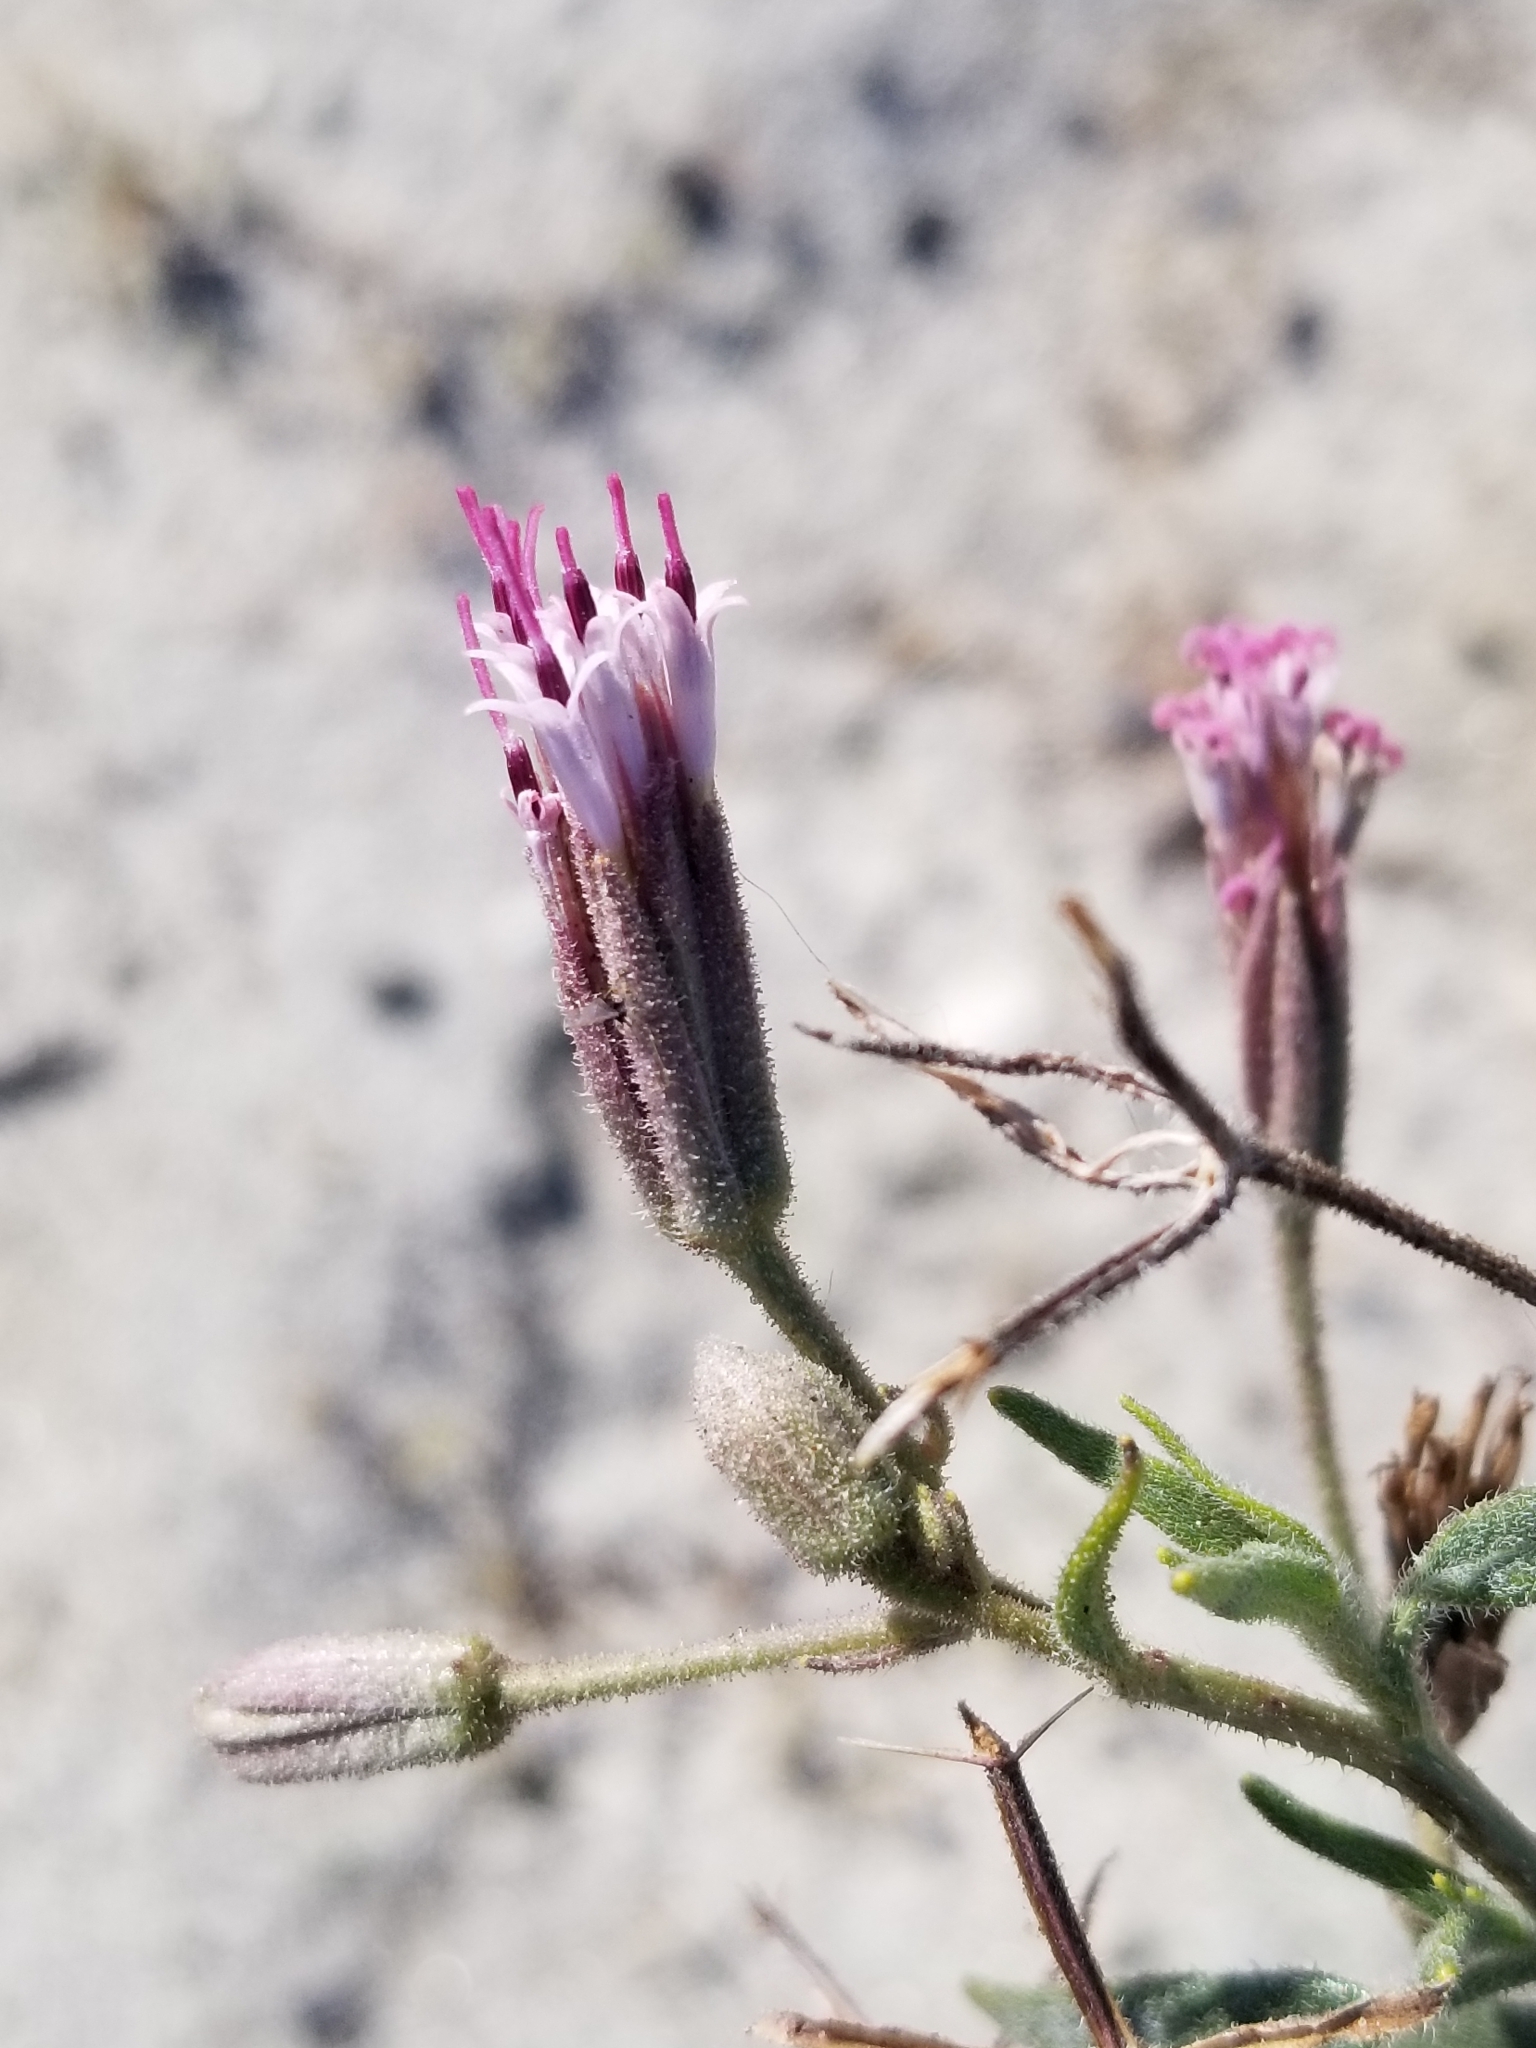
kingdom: Plantae
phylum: Tracheophyta
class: Magnoliopsida
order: Asterales
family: Asteraceae
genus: Palafoxia
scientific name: Palafoxia arida
